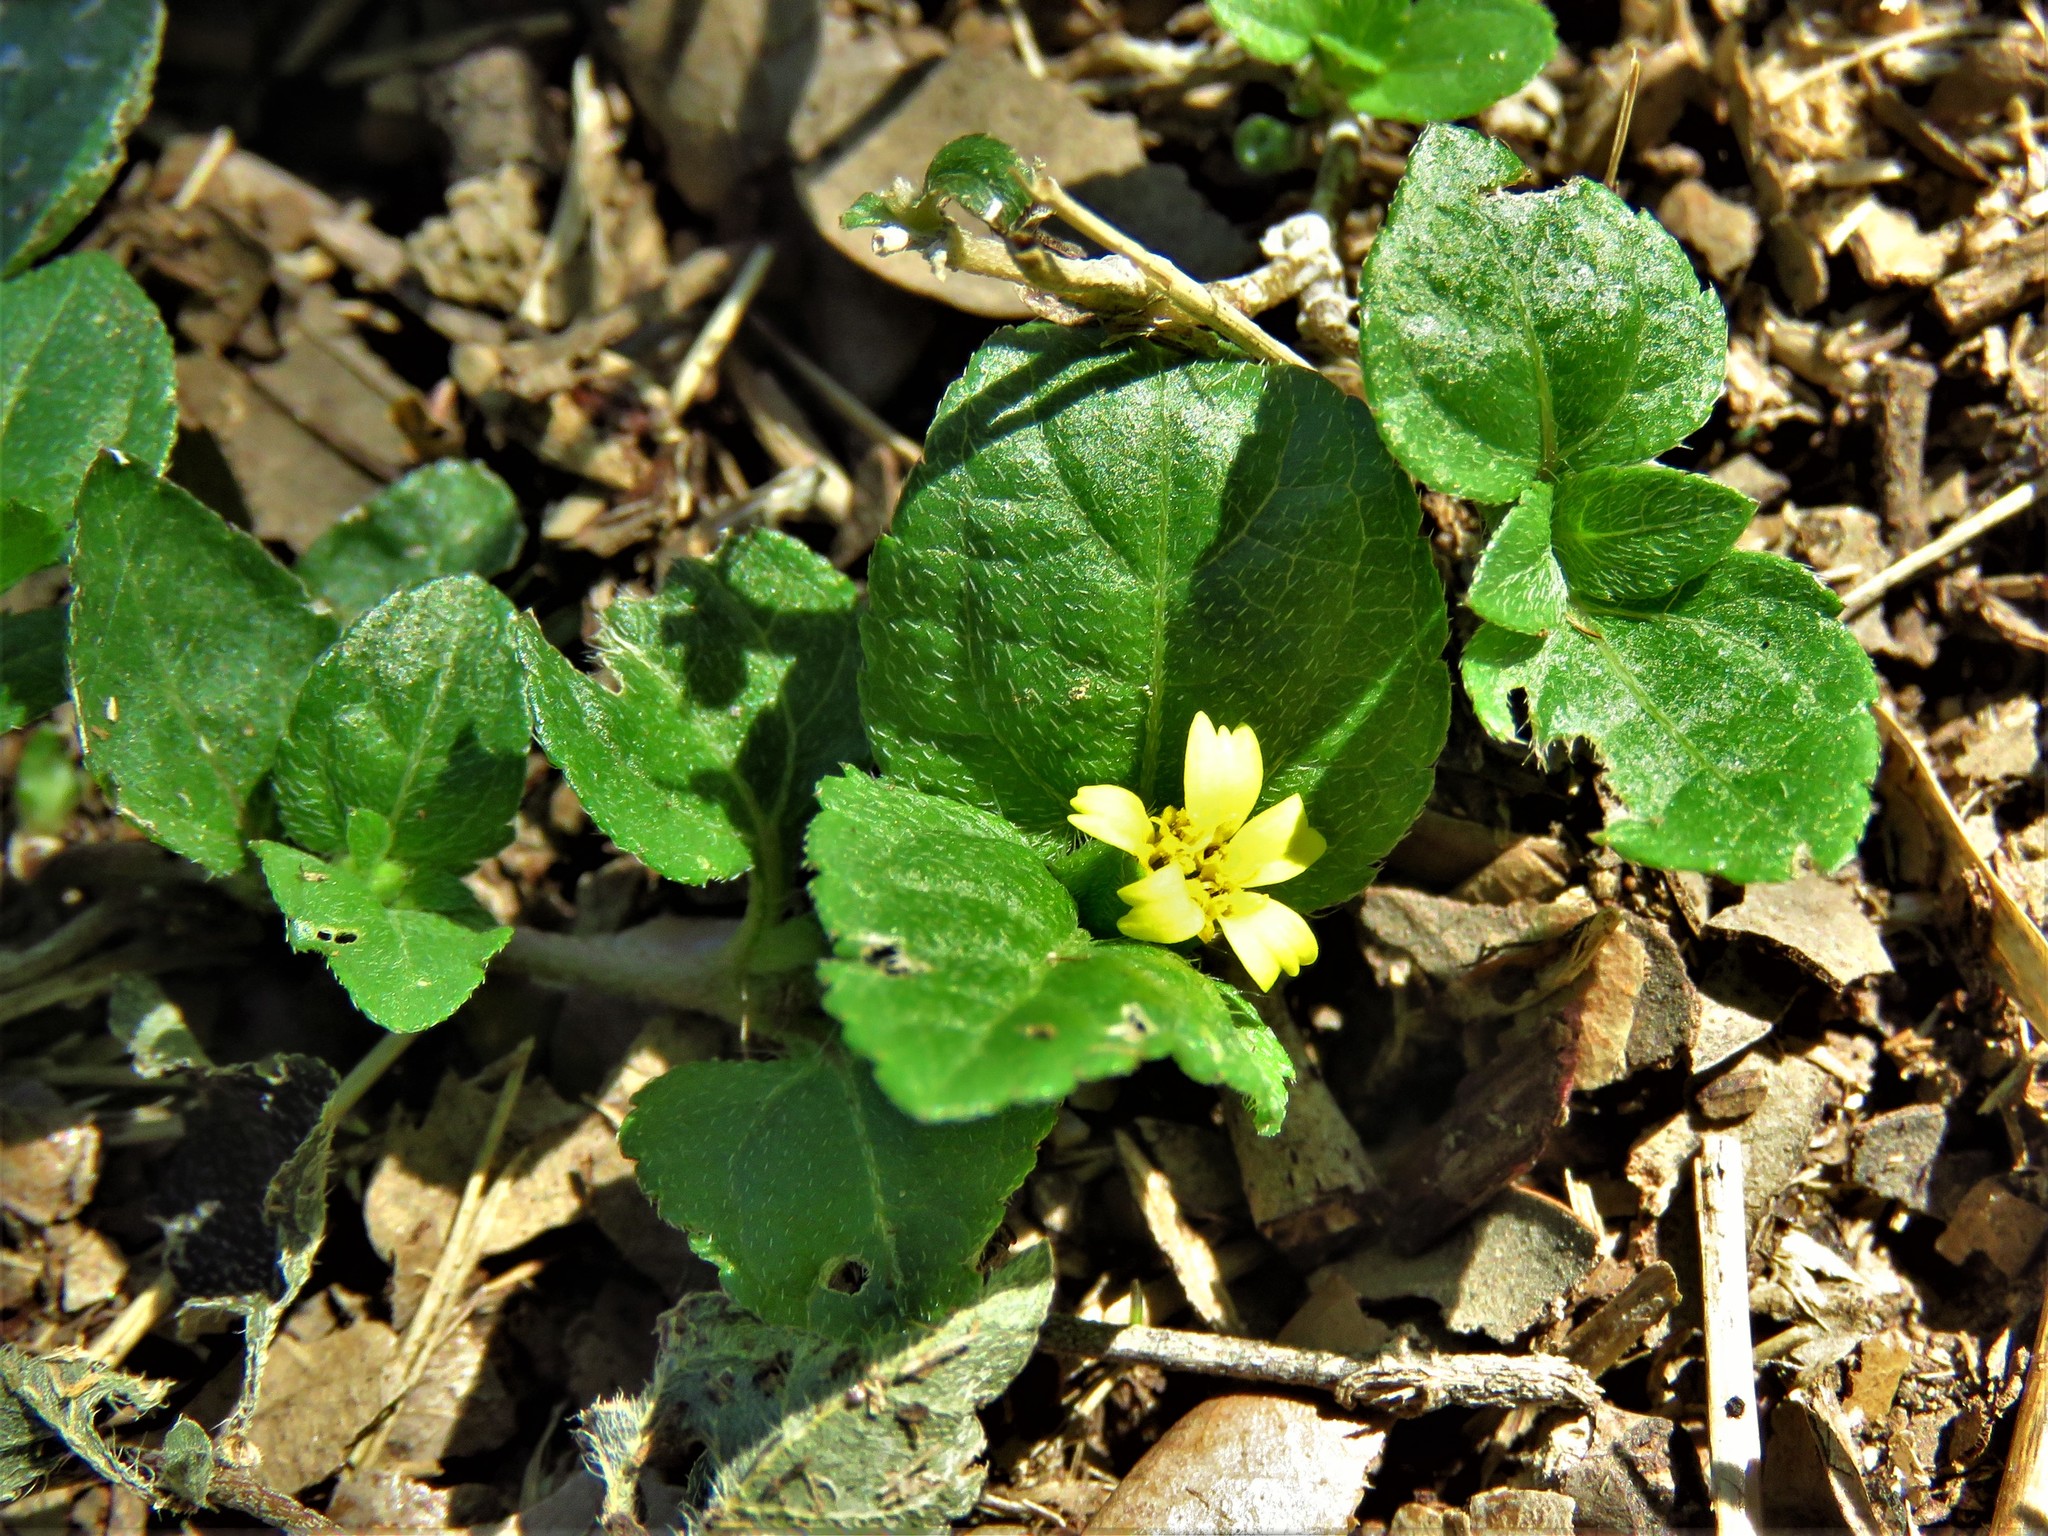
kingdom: Plantae
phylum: Tracheophyta
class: Magnoliopsida
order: Asterales
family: Asteraceae
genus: Calyptocarpus
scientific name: Calyptocarpus vialis
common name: Straggler daisy
